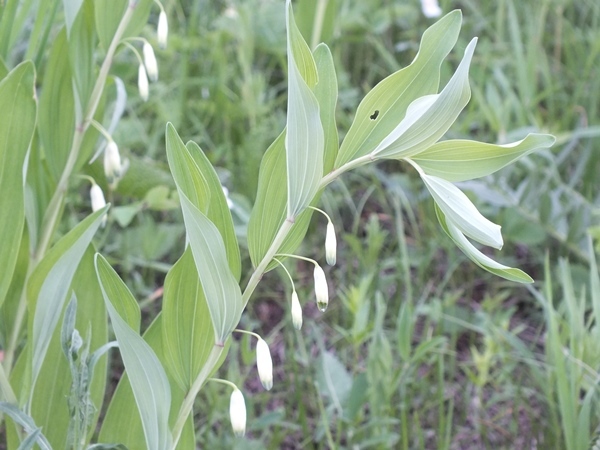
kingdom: Plantae
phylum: Tracheophyta
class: Liliopsida
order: Asparagales
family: Asparagaceae
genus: Polygonatum
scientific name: Polygonatum odoratum
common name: Angular solomon's-seal
